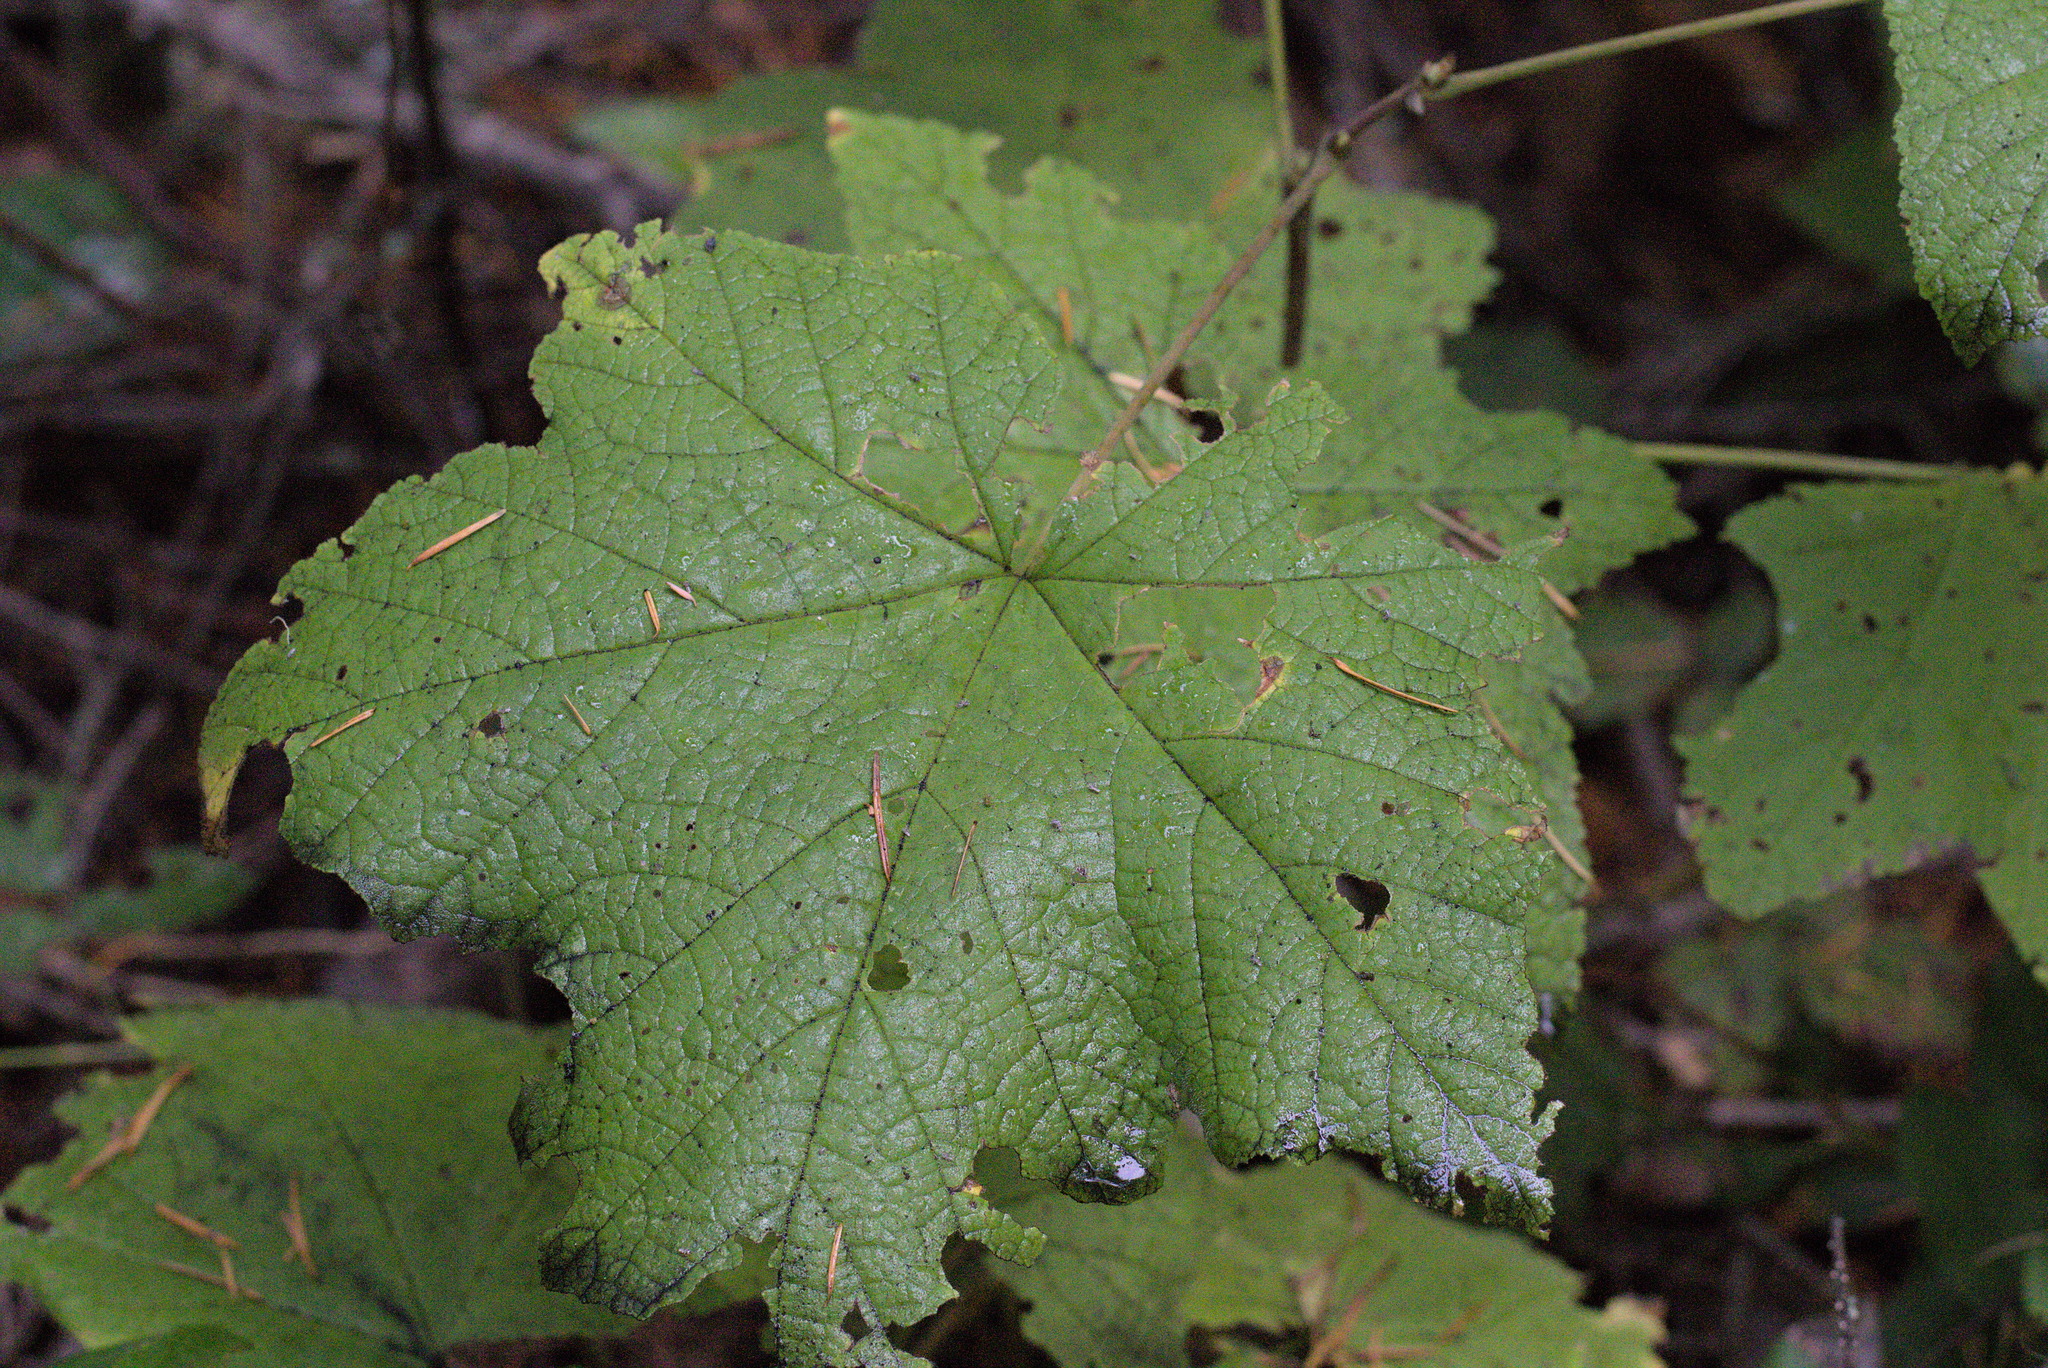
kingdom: Plantae
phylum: Tracheophyta
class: Magnoliopsida
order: Rosales
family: Rosaceae
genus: Rubus
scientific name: Rubus parviflorus
